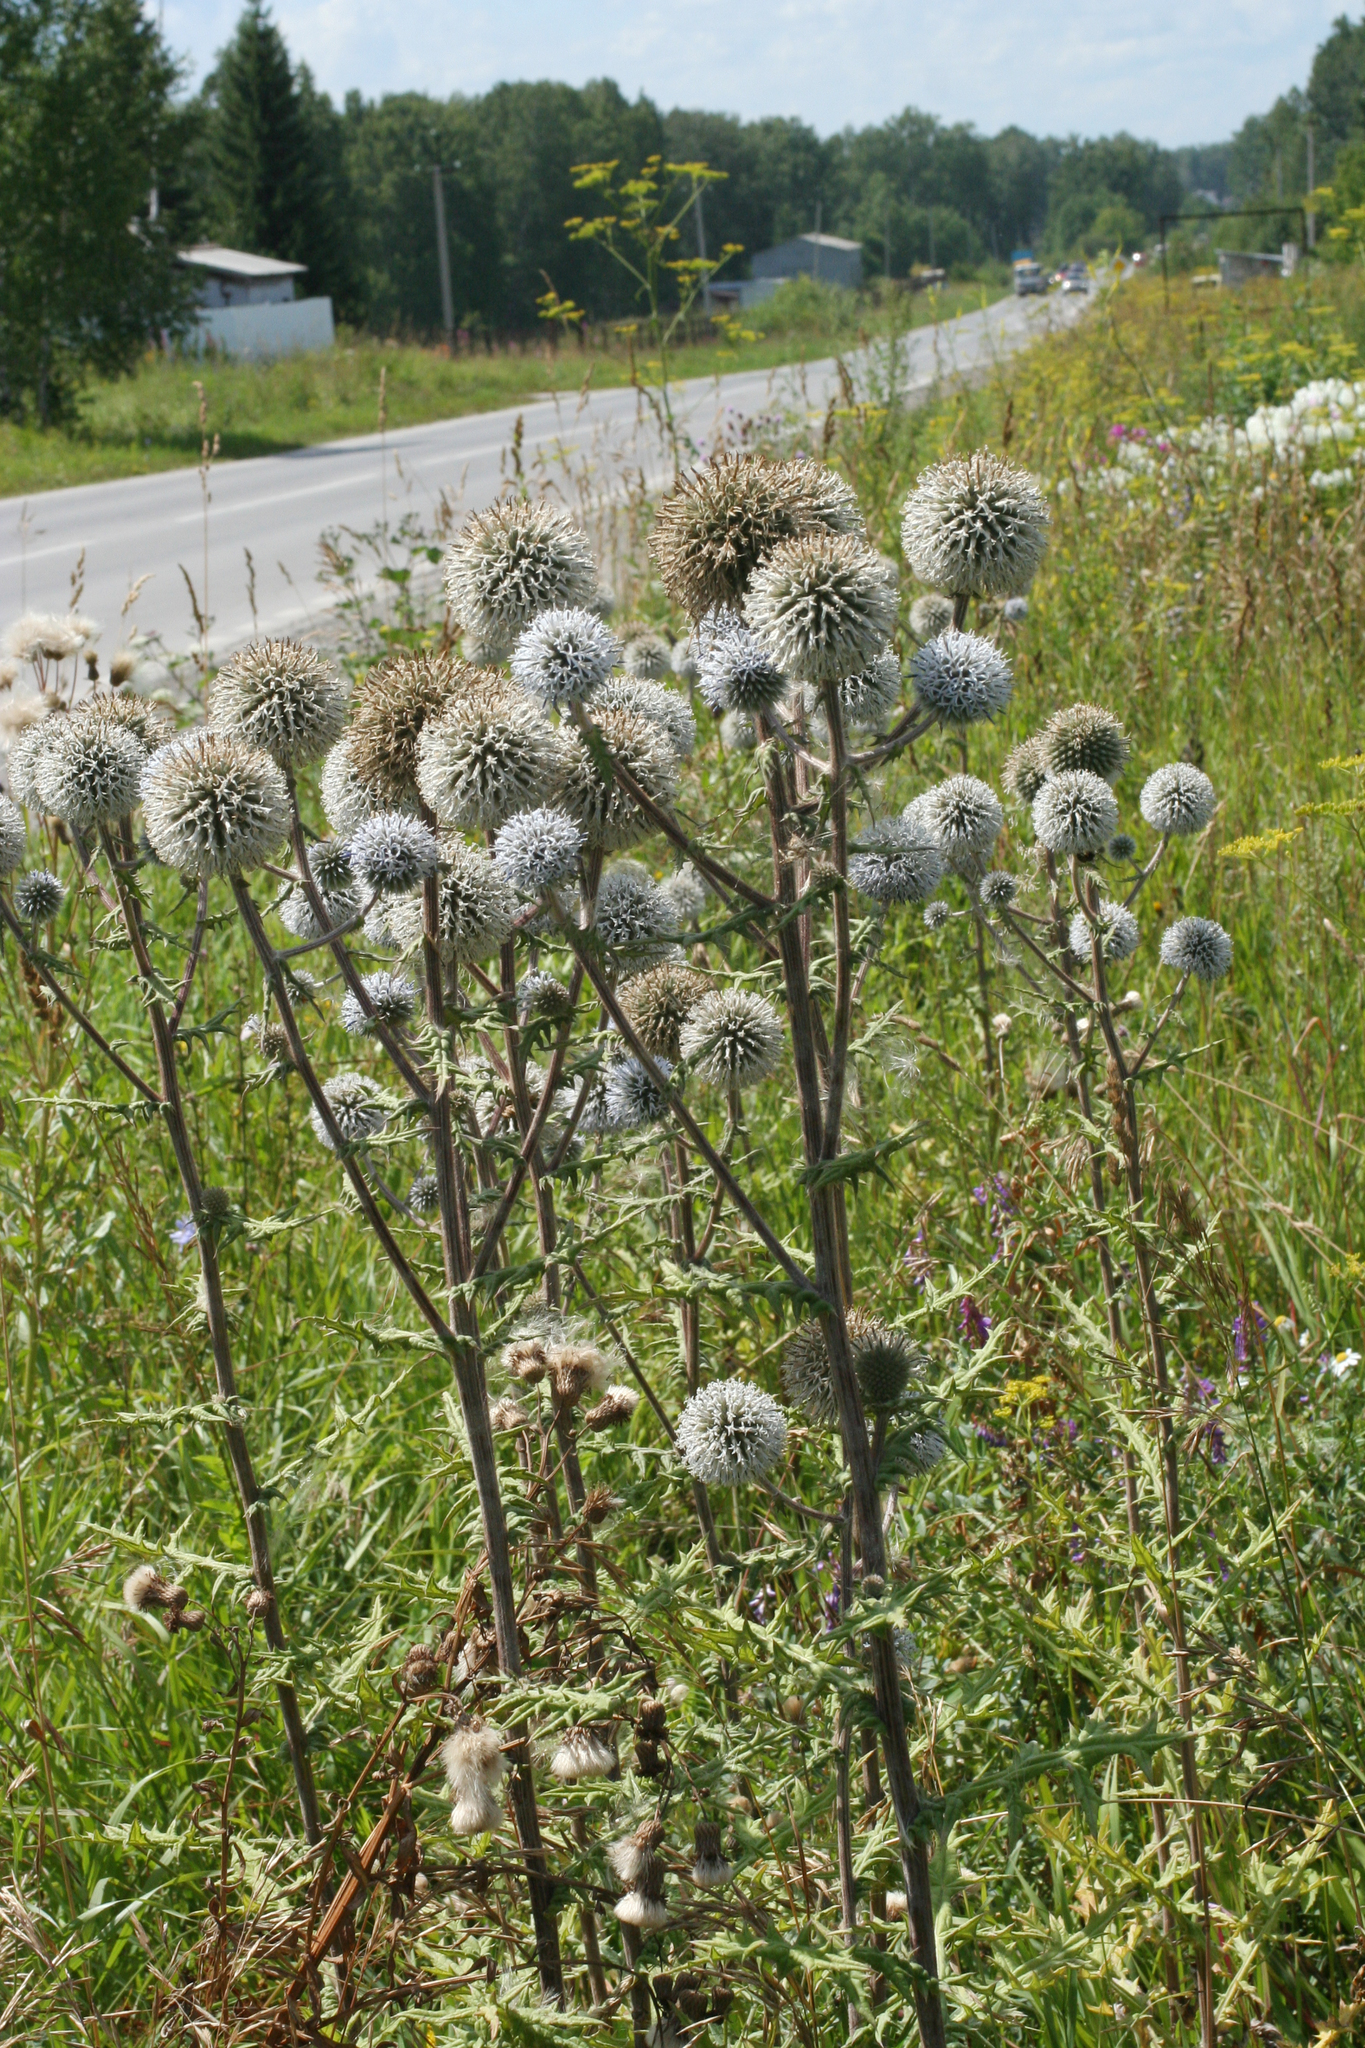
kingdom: Plantae
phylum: Tracheophyta
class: Magnoliopsida
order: Asterales
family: Asteraceae
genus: Echinops
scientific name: Echinops sphaerocephalus
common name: Glandular globe-thistle
